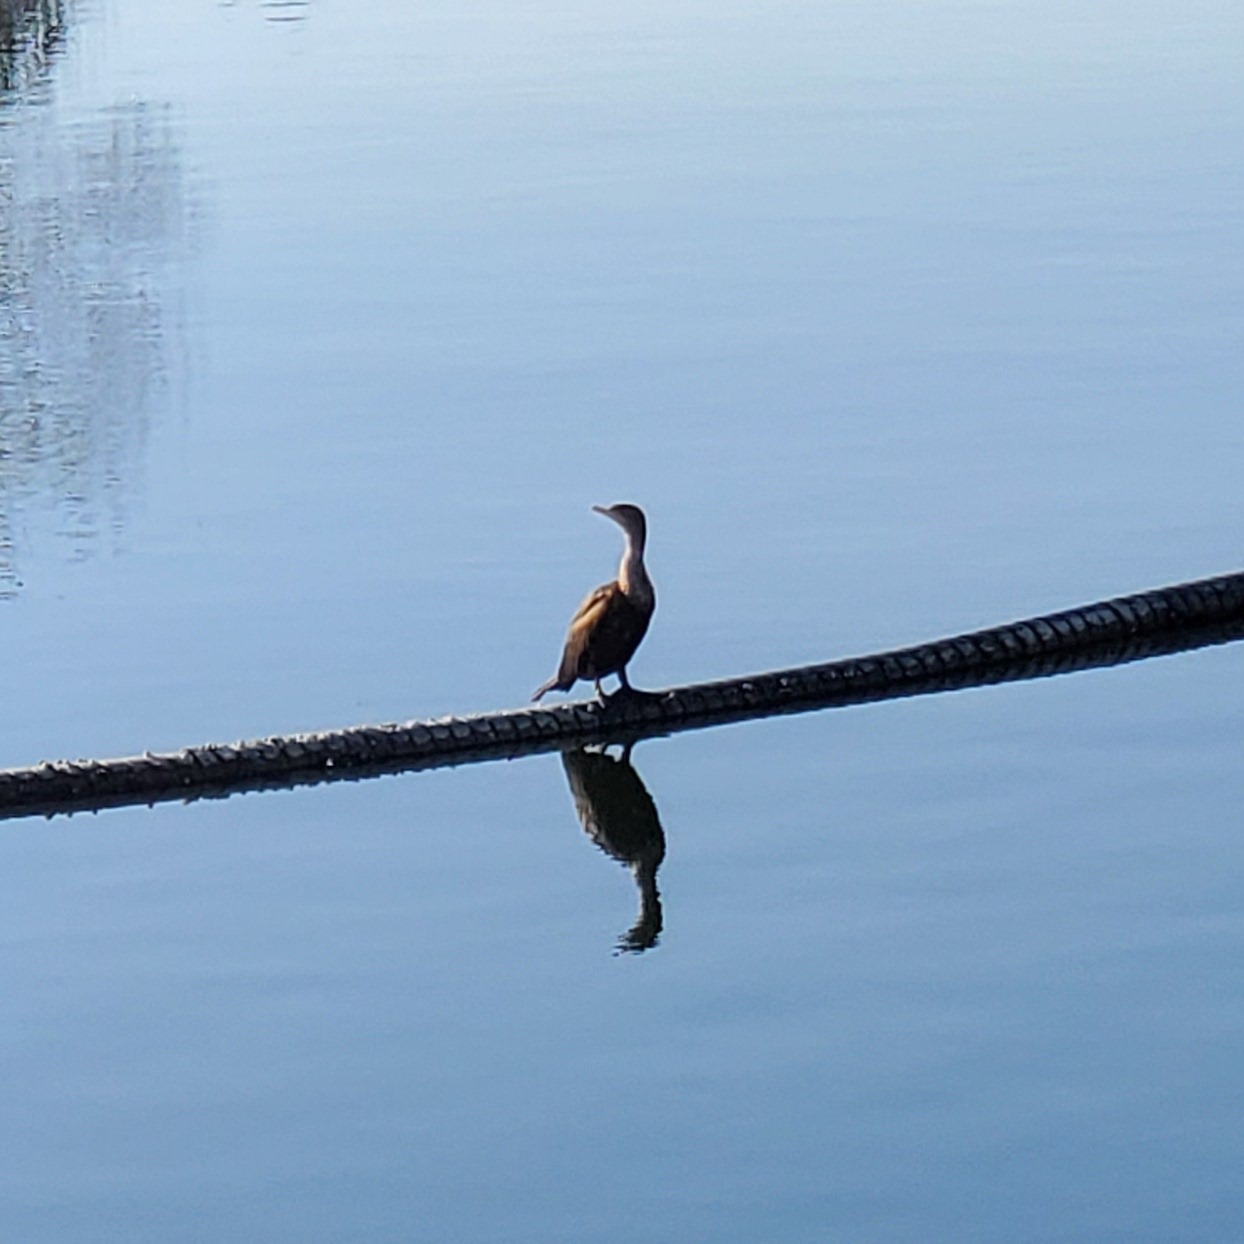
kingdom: Animalia
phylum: Chordata
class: Aves
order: Suliformes
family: Phalacrocoracidae
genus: Phalacrocorax
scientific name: Phalacrocorax auritus
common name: Double-crested cormorant
